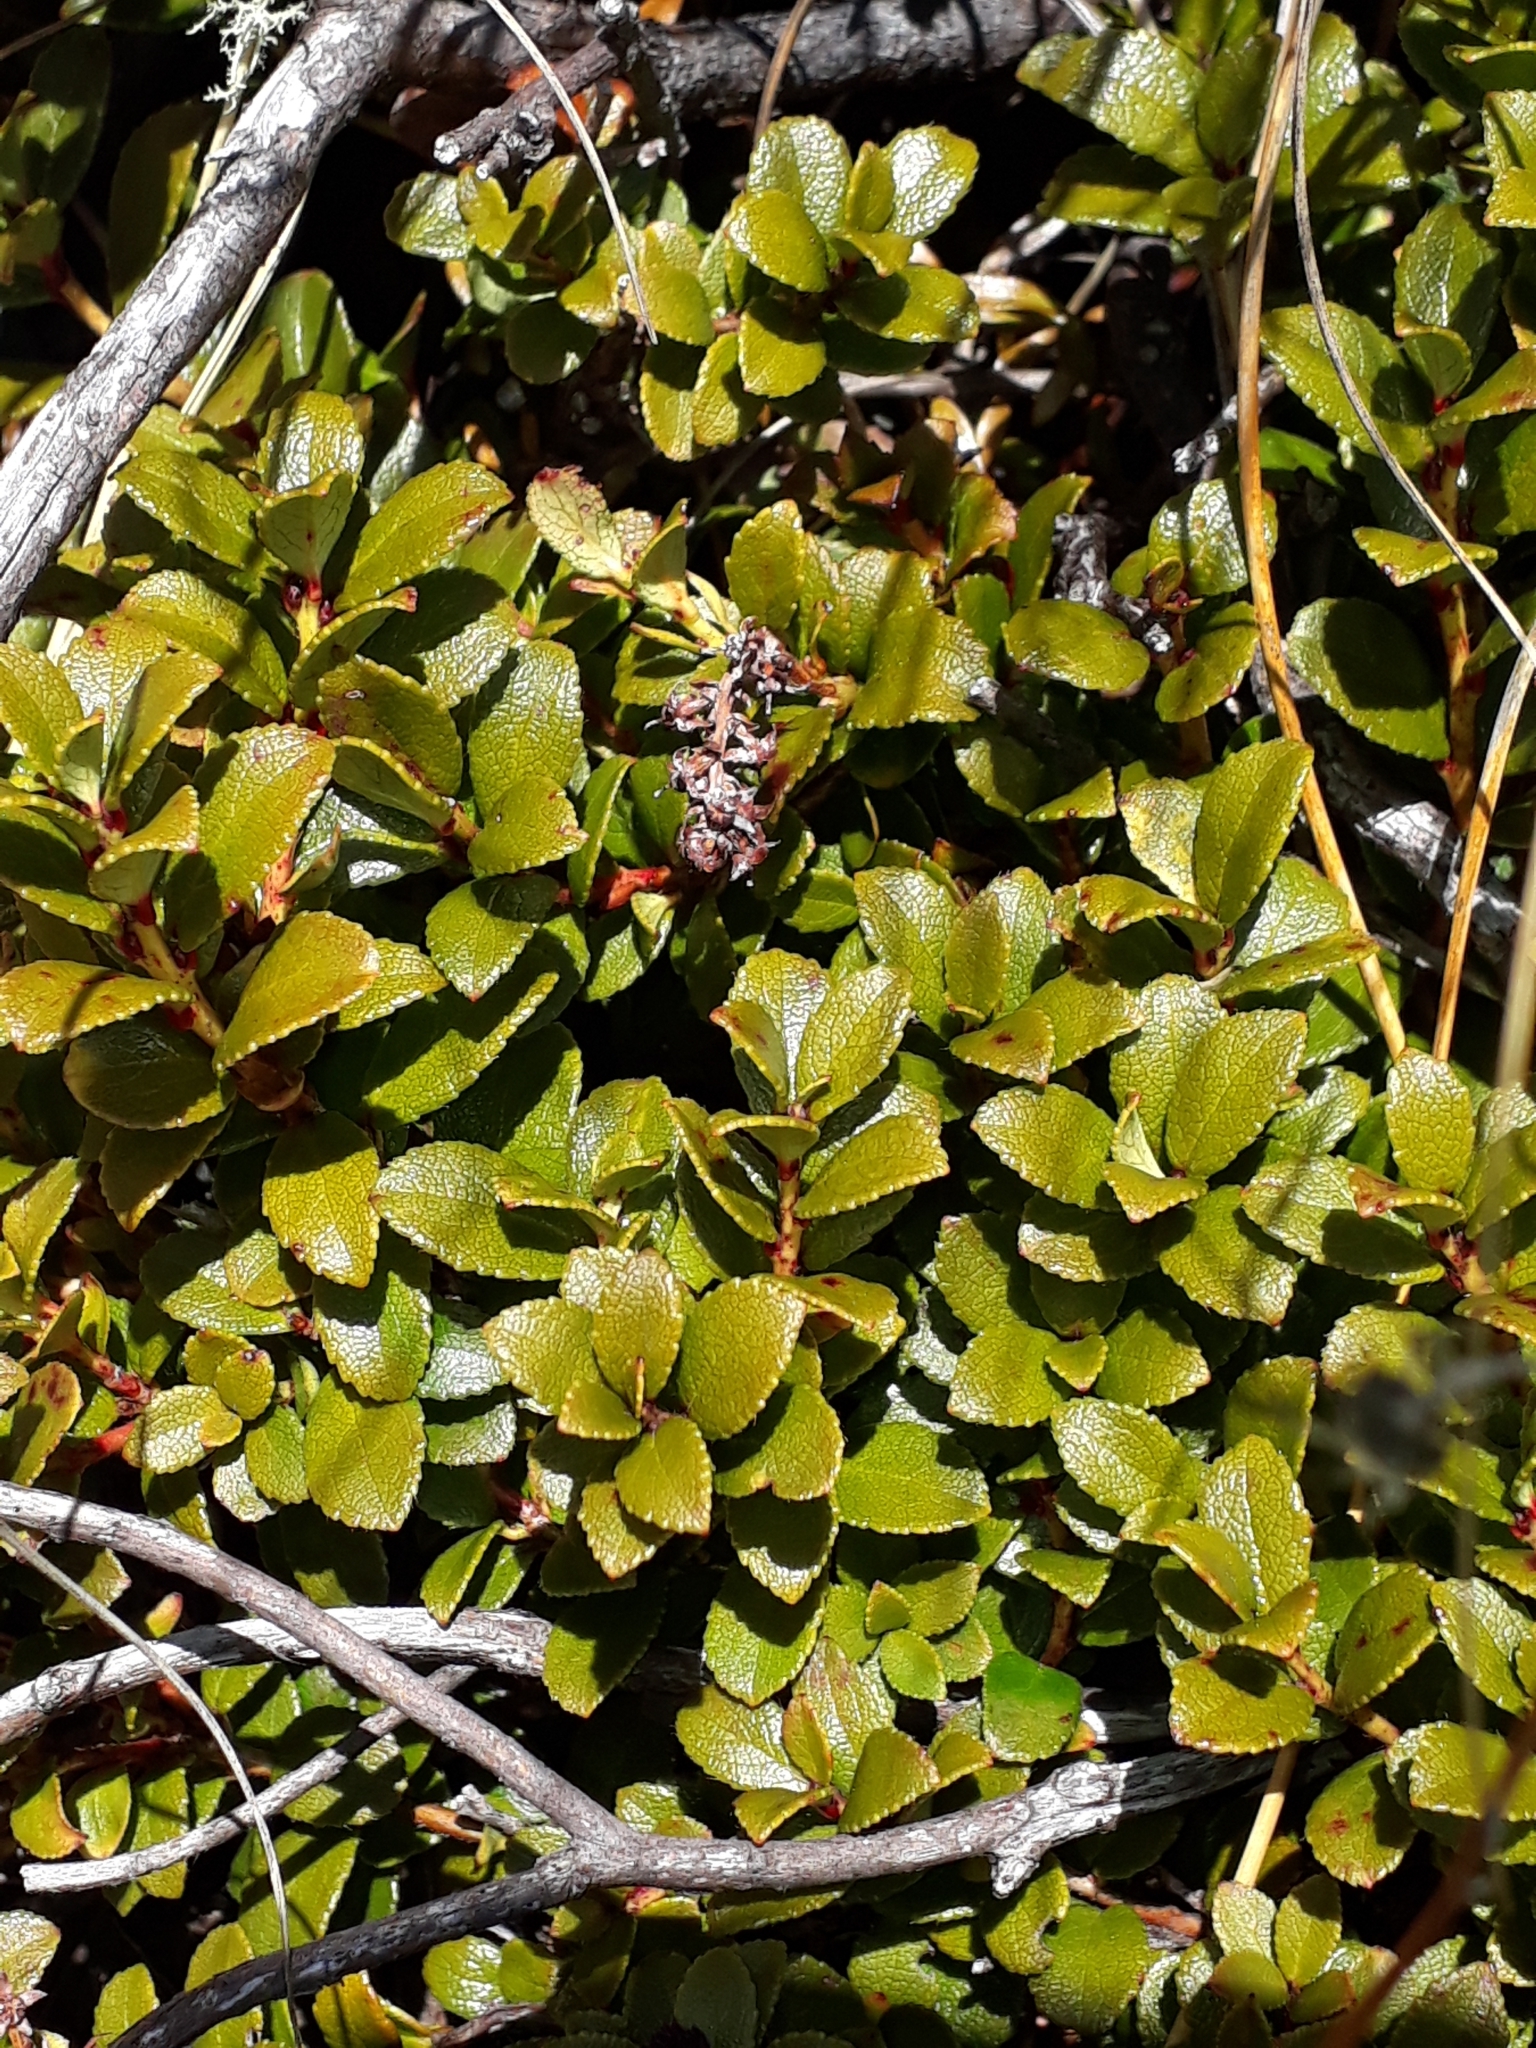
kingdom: Plantae
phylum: Tracheophyta
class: Magnoliopsida
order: Ericales
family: Ericaceae
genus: Gaultheria
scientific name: Gaultheria crassa
